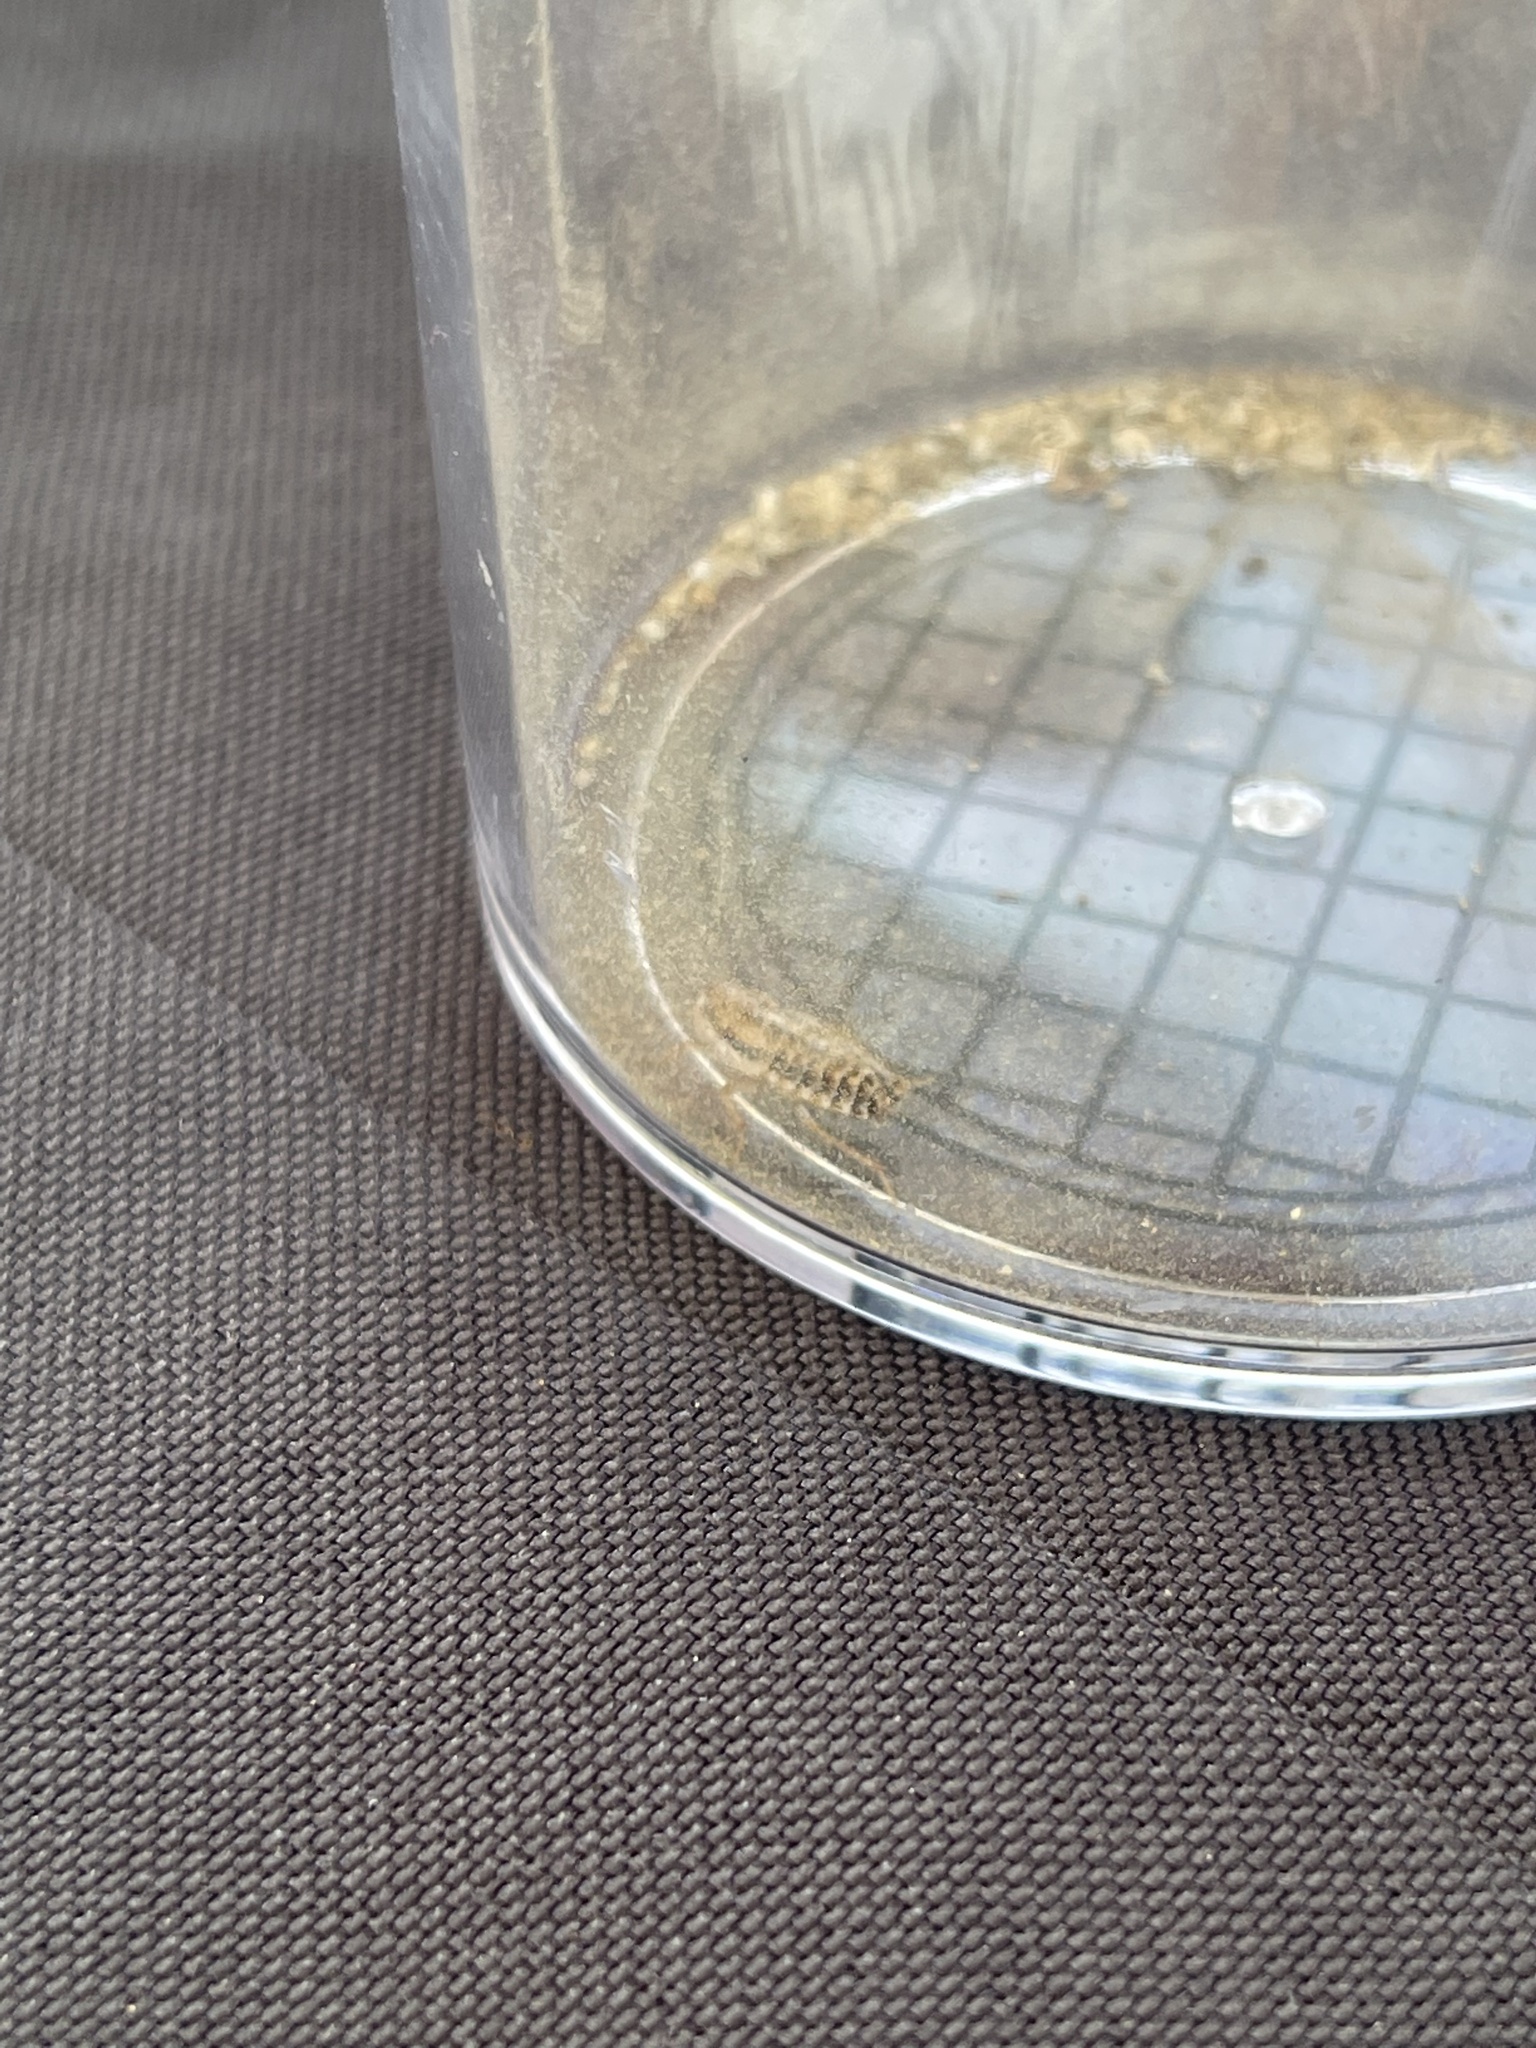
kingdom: Animalia
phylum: Arthropoda
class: Insecta
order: Blattodea
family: Ectobiidae
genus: Luridiblatta
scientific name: Luridiblatta trivittata
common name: Three-lined cockroach
